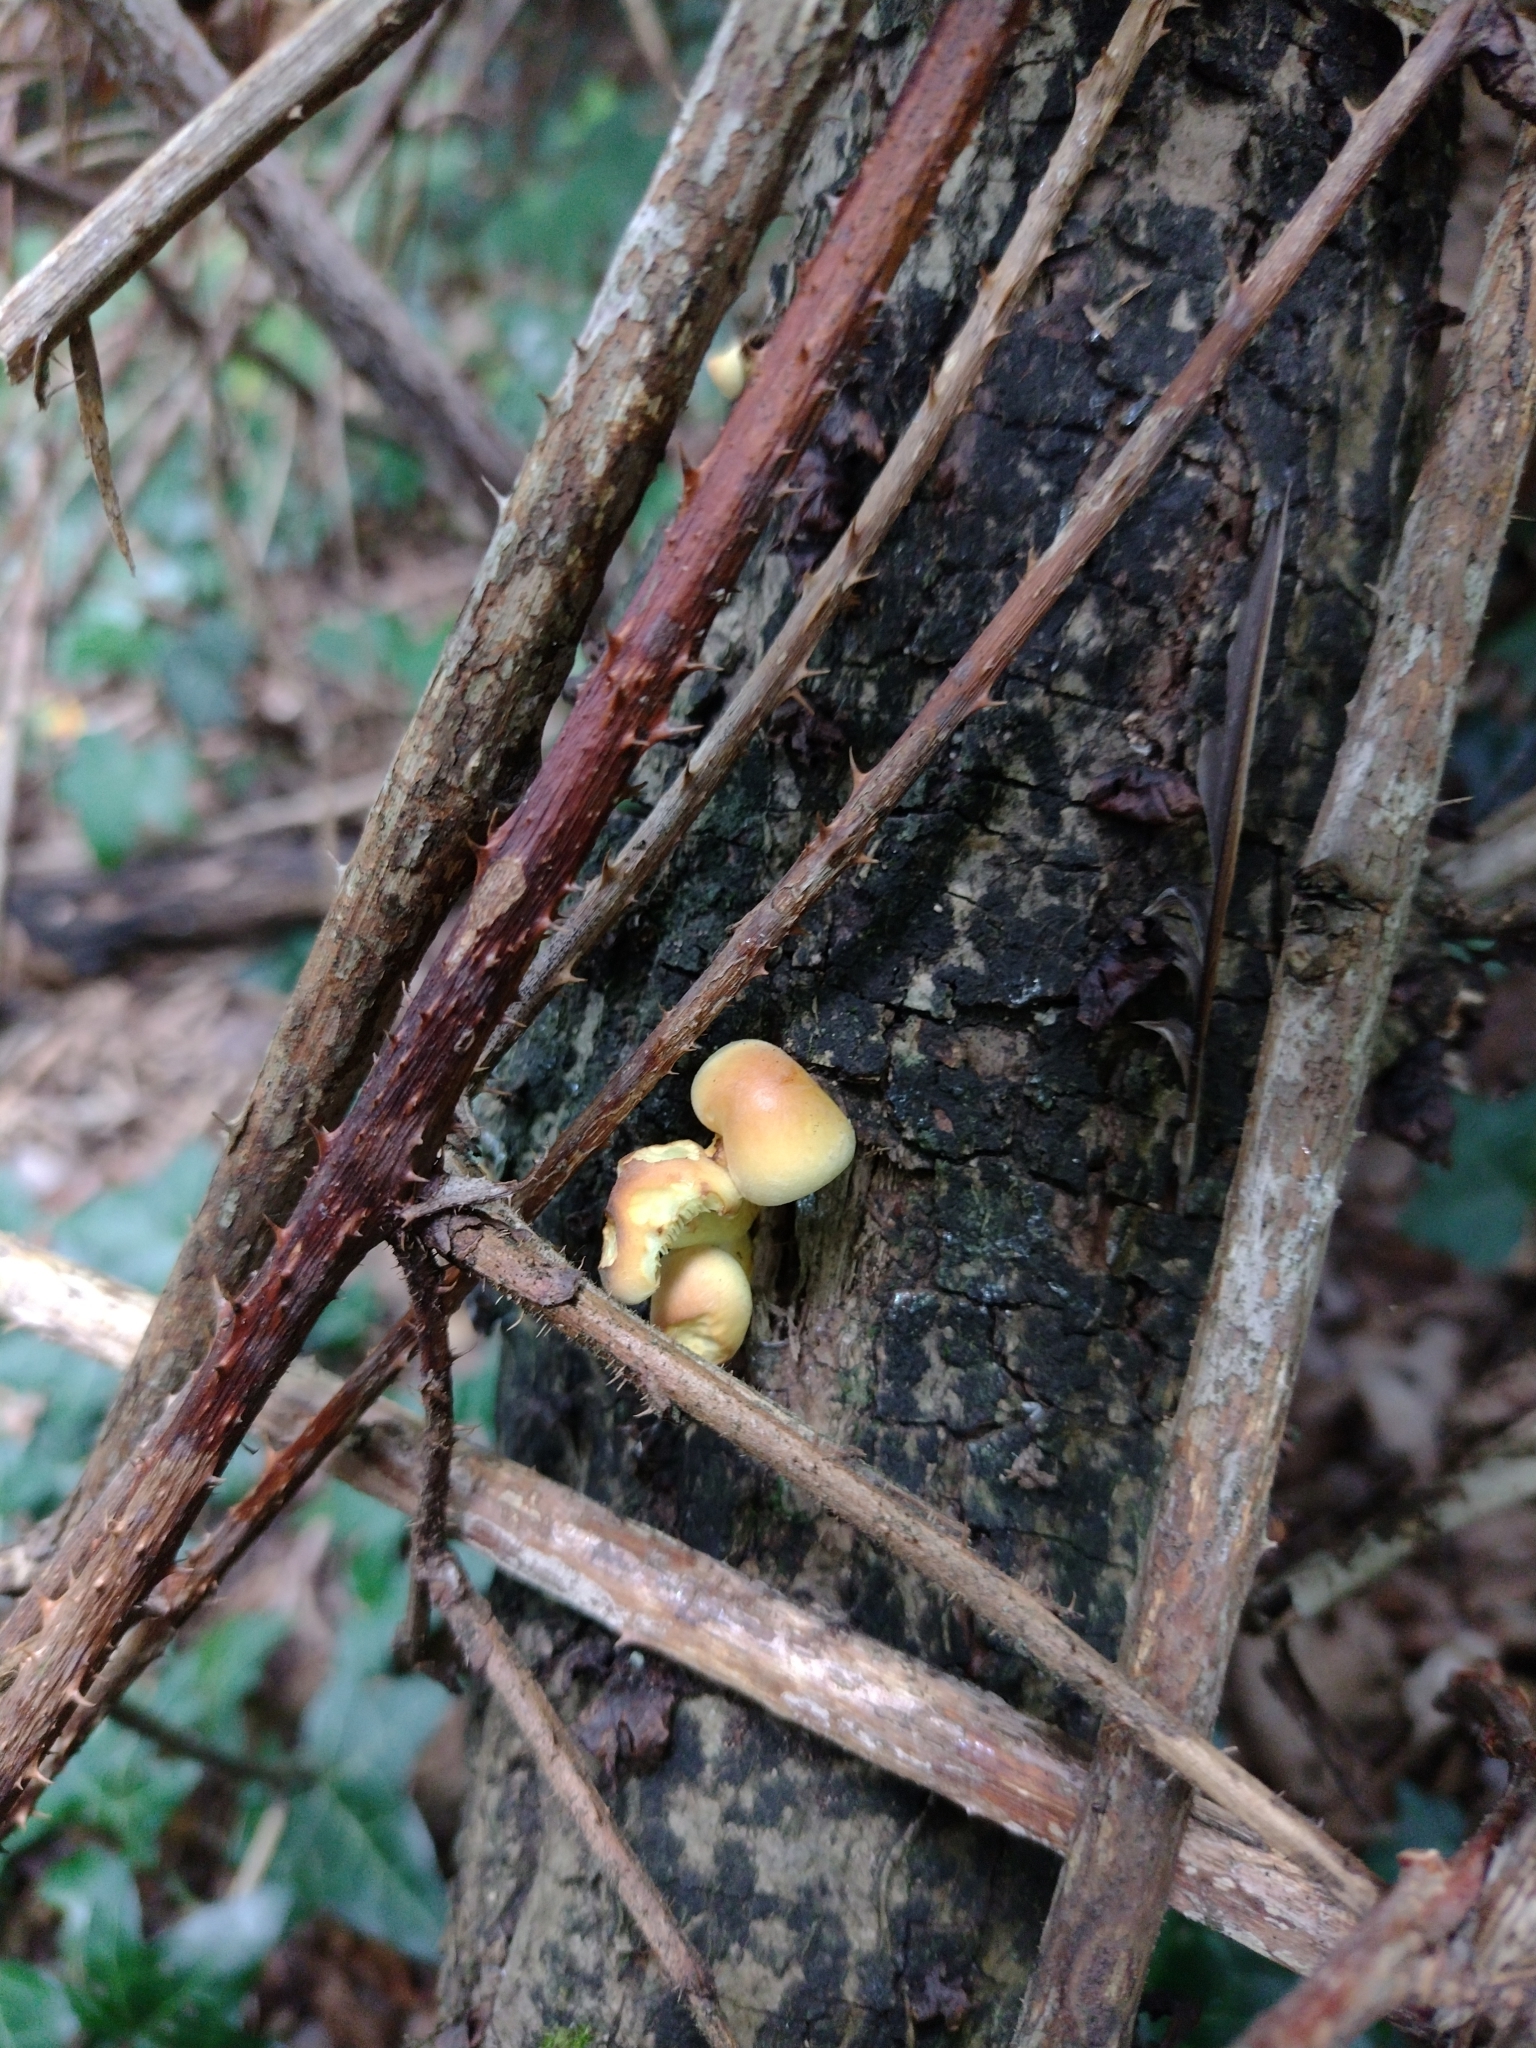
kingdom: Fungi
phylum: Basidiomycota
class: Agaricomycetes
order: Agaricales
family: Strophariaceae
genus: Hypholoma
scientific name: Hypholoma fasciculare
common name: Sulphur tuft
